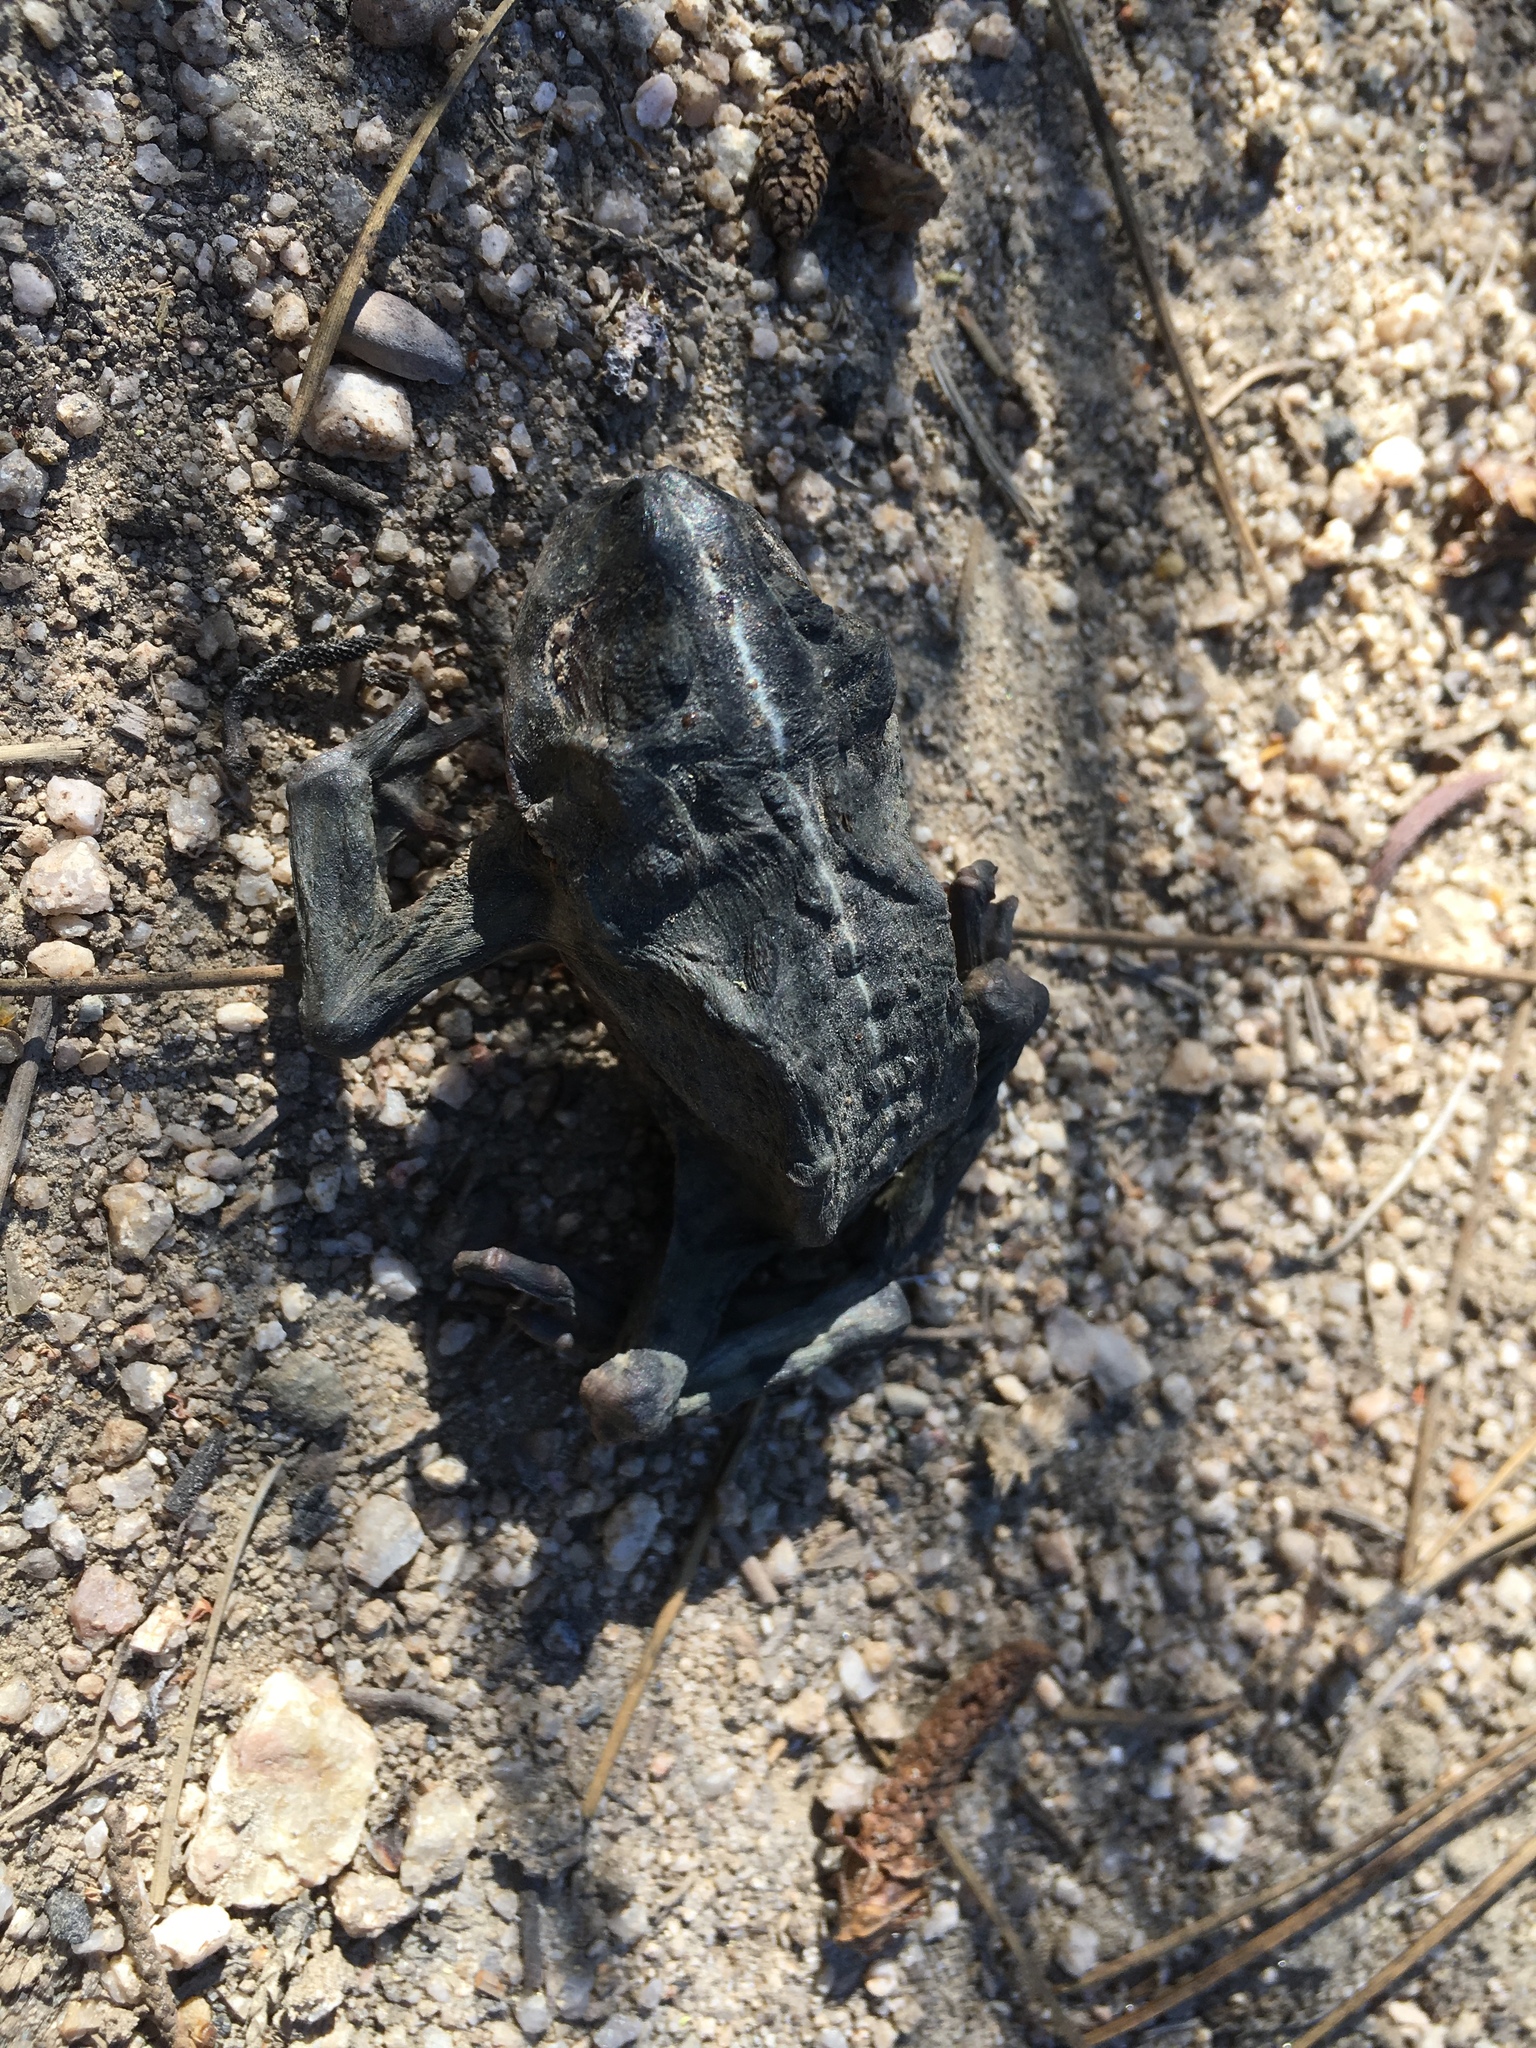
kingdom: Animalia
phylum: Chordata
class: Amphibia
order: Anura
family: Bufonidae
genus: Anaxyrus
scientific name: Anaxyrus boreas
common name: Western toad
